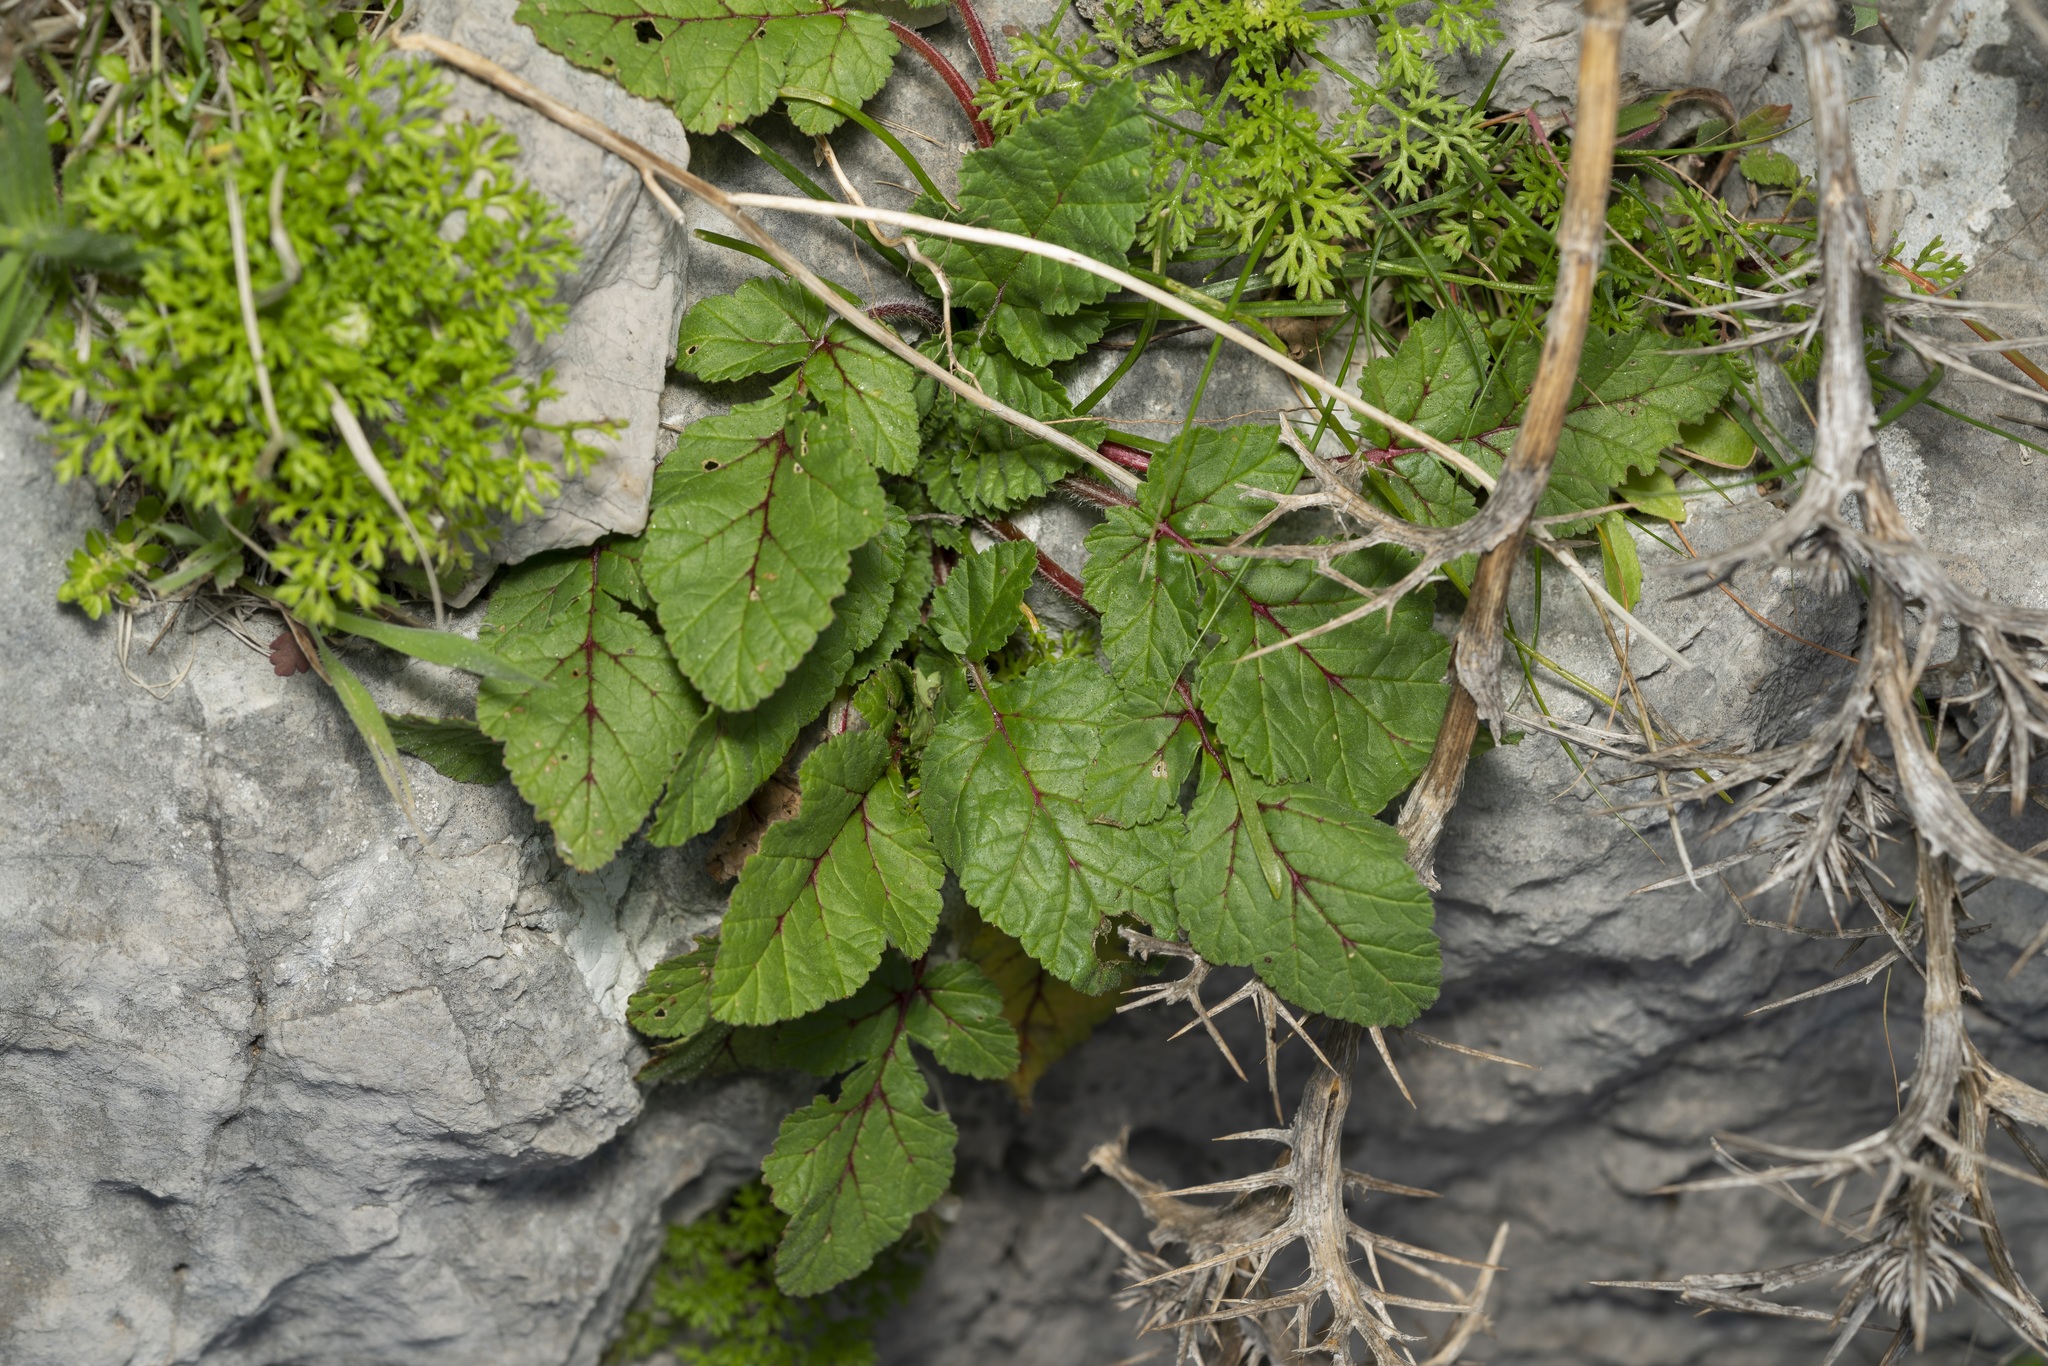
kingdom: Plantae
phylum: Tracheophyta
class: Magnoliopsida
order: Geraniales
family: Geraniaceae
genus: Erodium
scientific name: Erodium malacoides
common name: Soft stork's-bill
